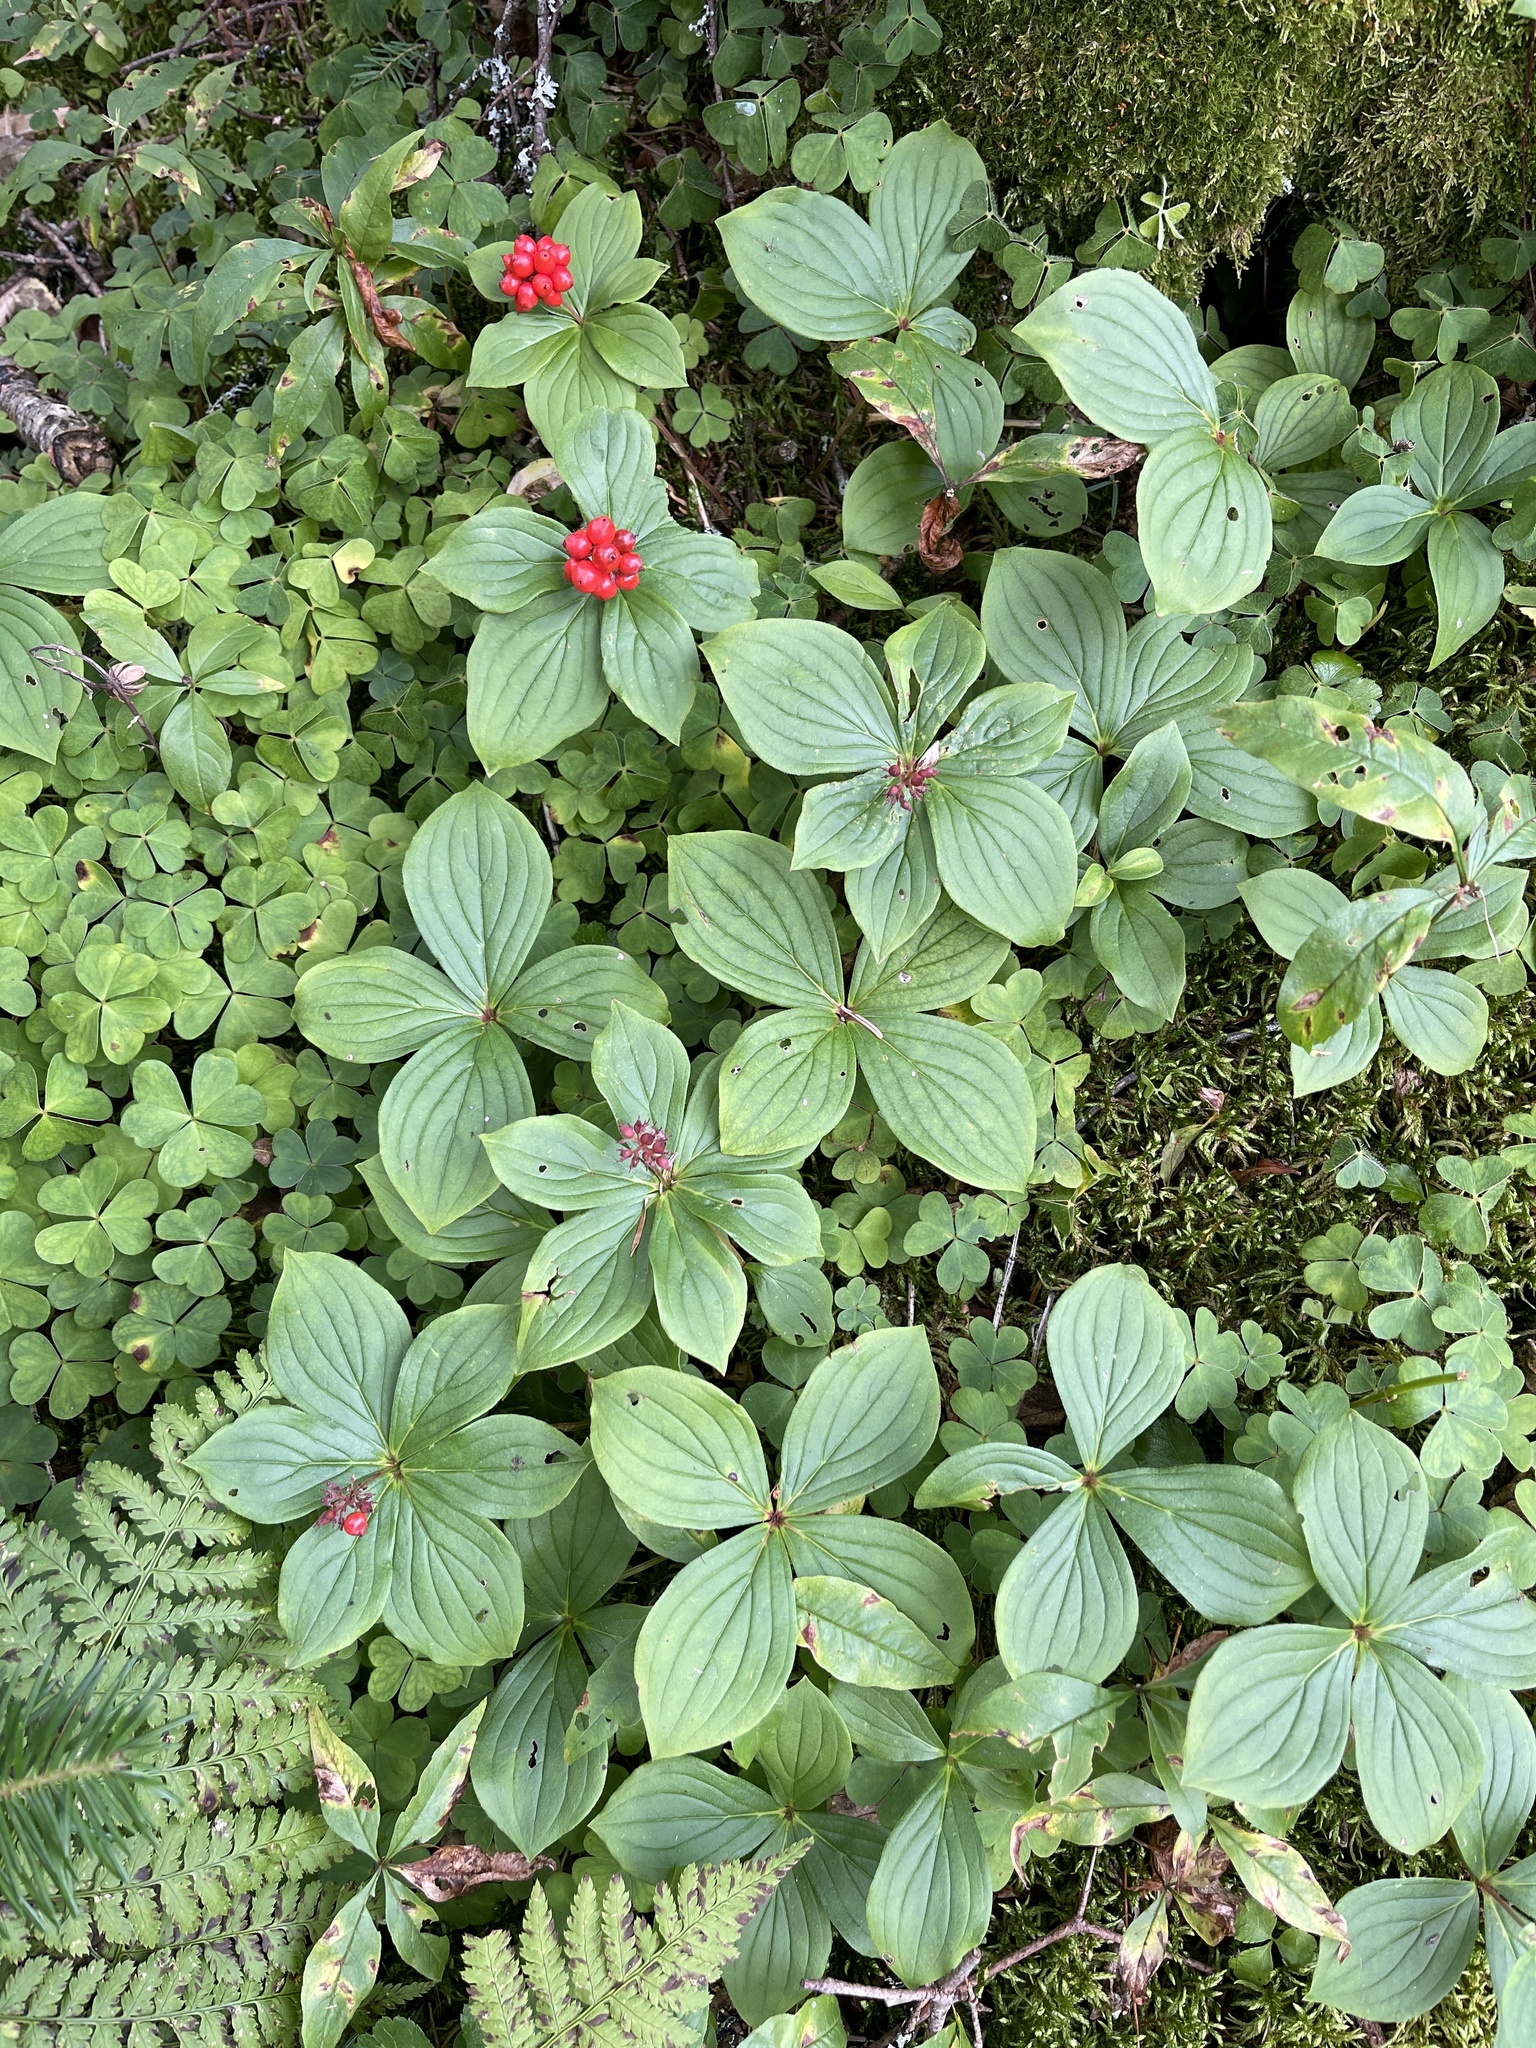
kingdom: Plantae
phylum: Tracheophyta
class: Magnoliopsida
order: Cornales
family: Cornaceae
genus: Cornus
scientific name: Cornus canadensis
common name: Creeping dogwood
